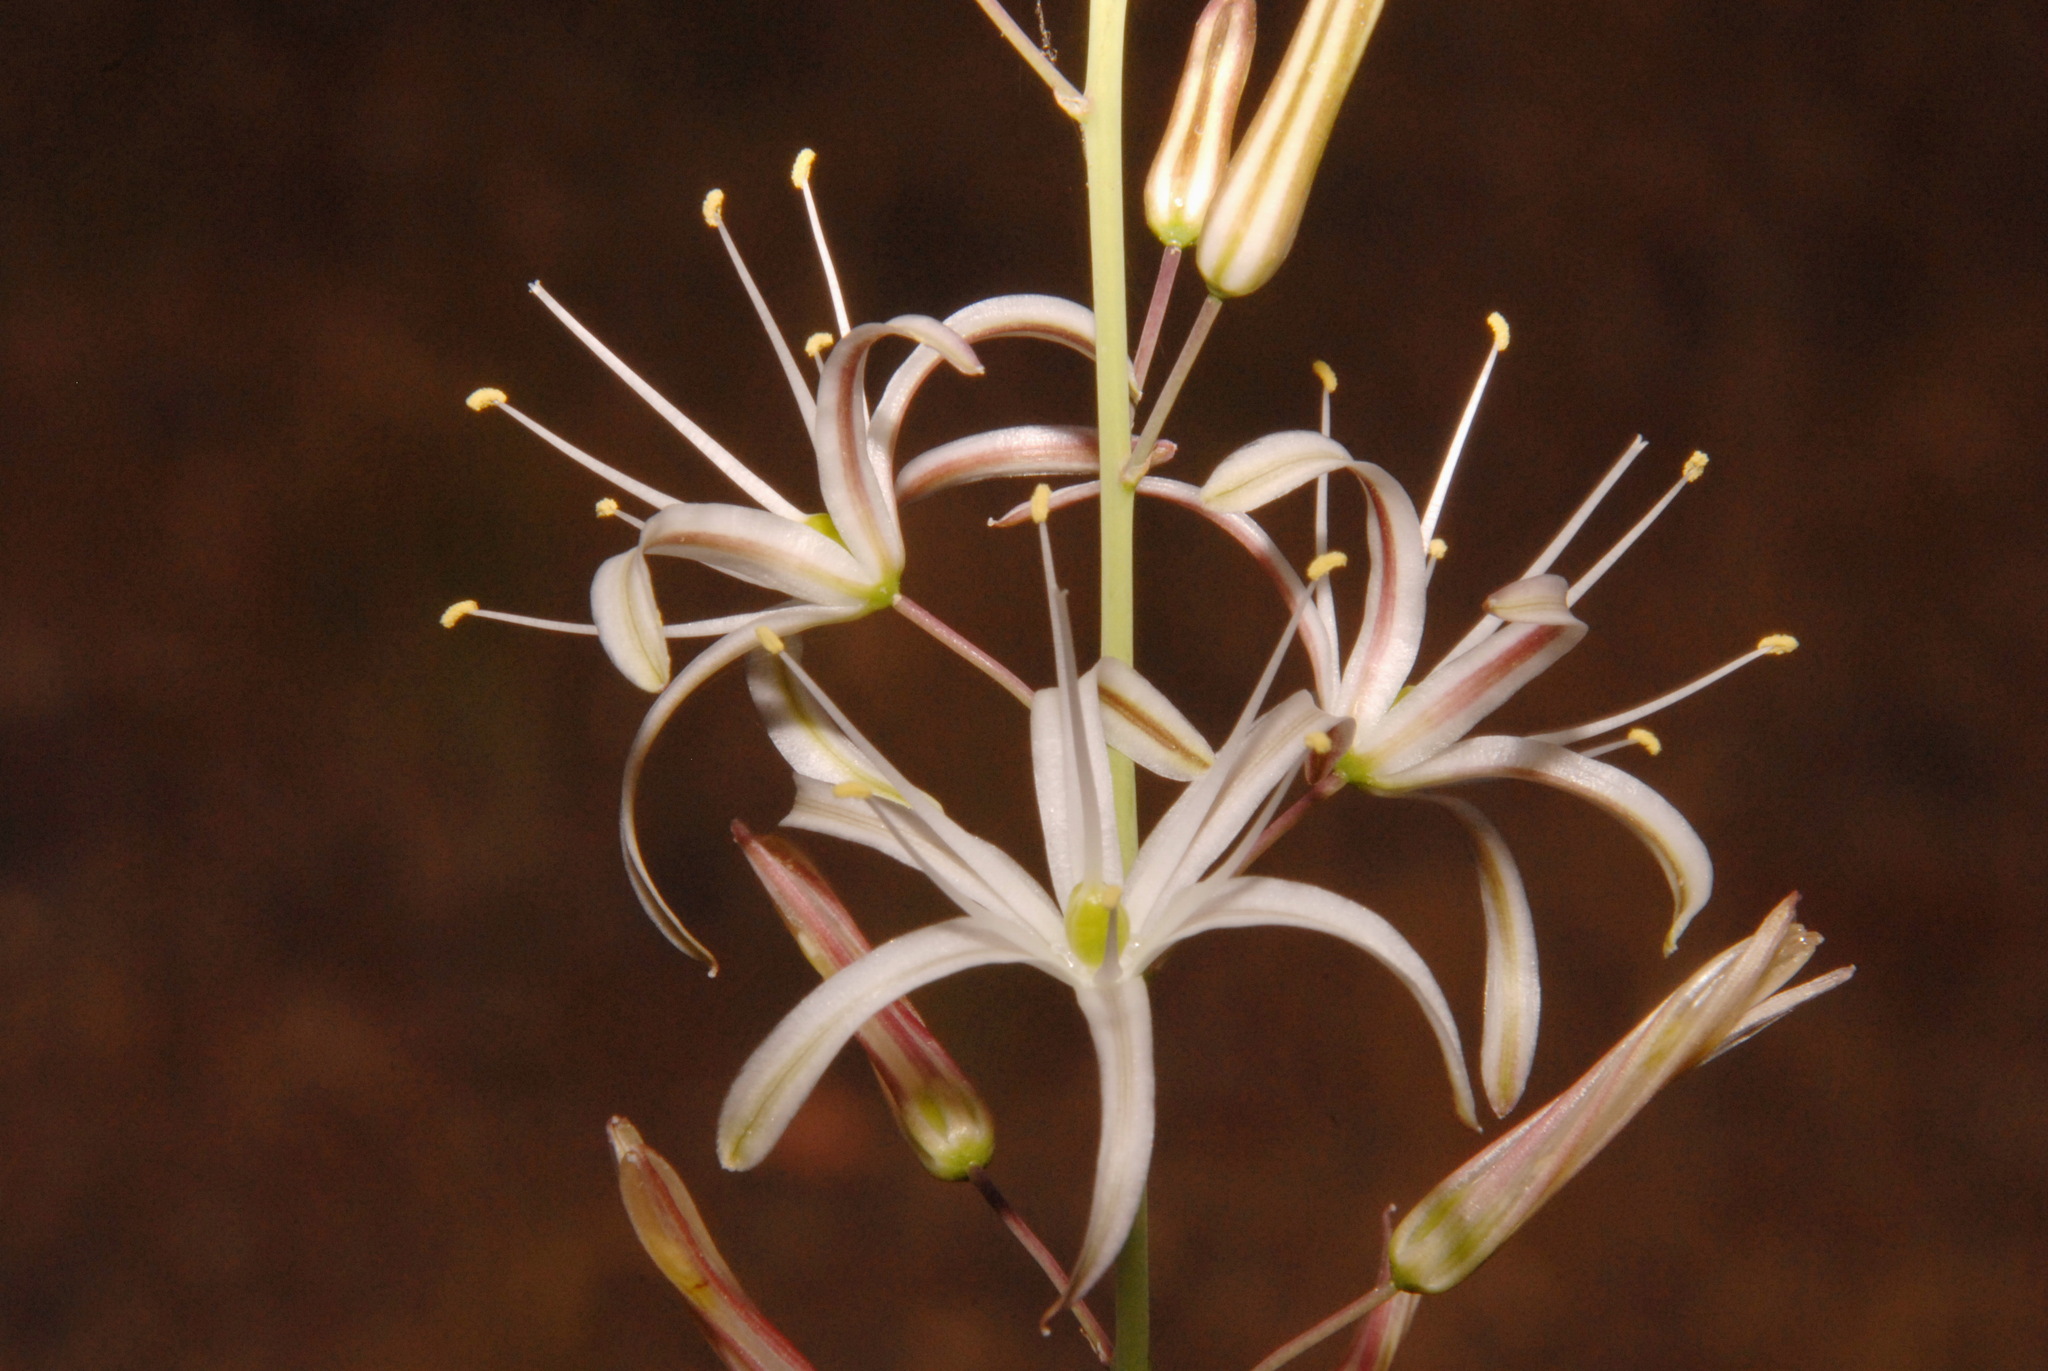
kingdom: Plantae
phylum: Tracheophyta
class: Liliopsida
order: Asparagales
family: Asparagaceae
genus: Chlorogalum
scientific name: Chlorogalum pomeridianum
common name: Amole
